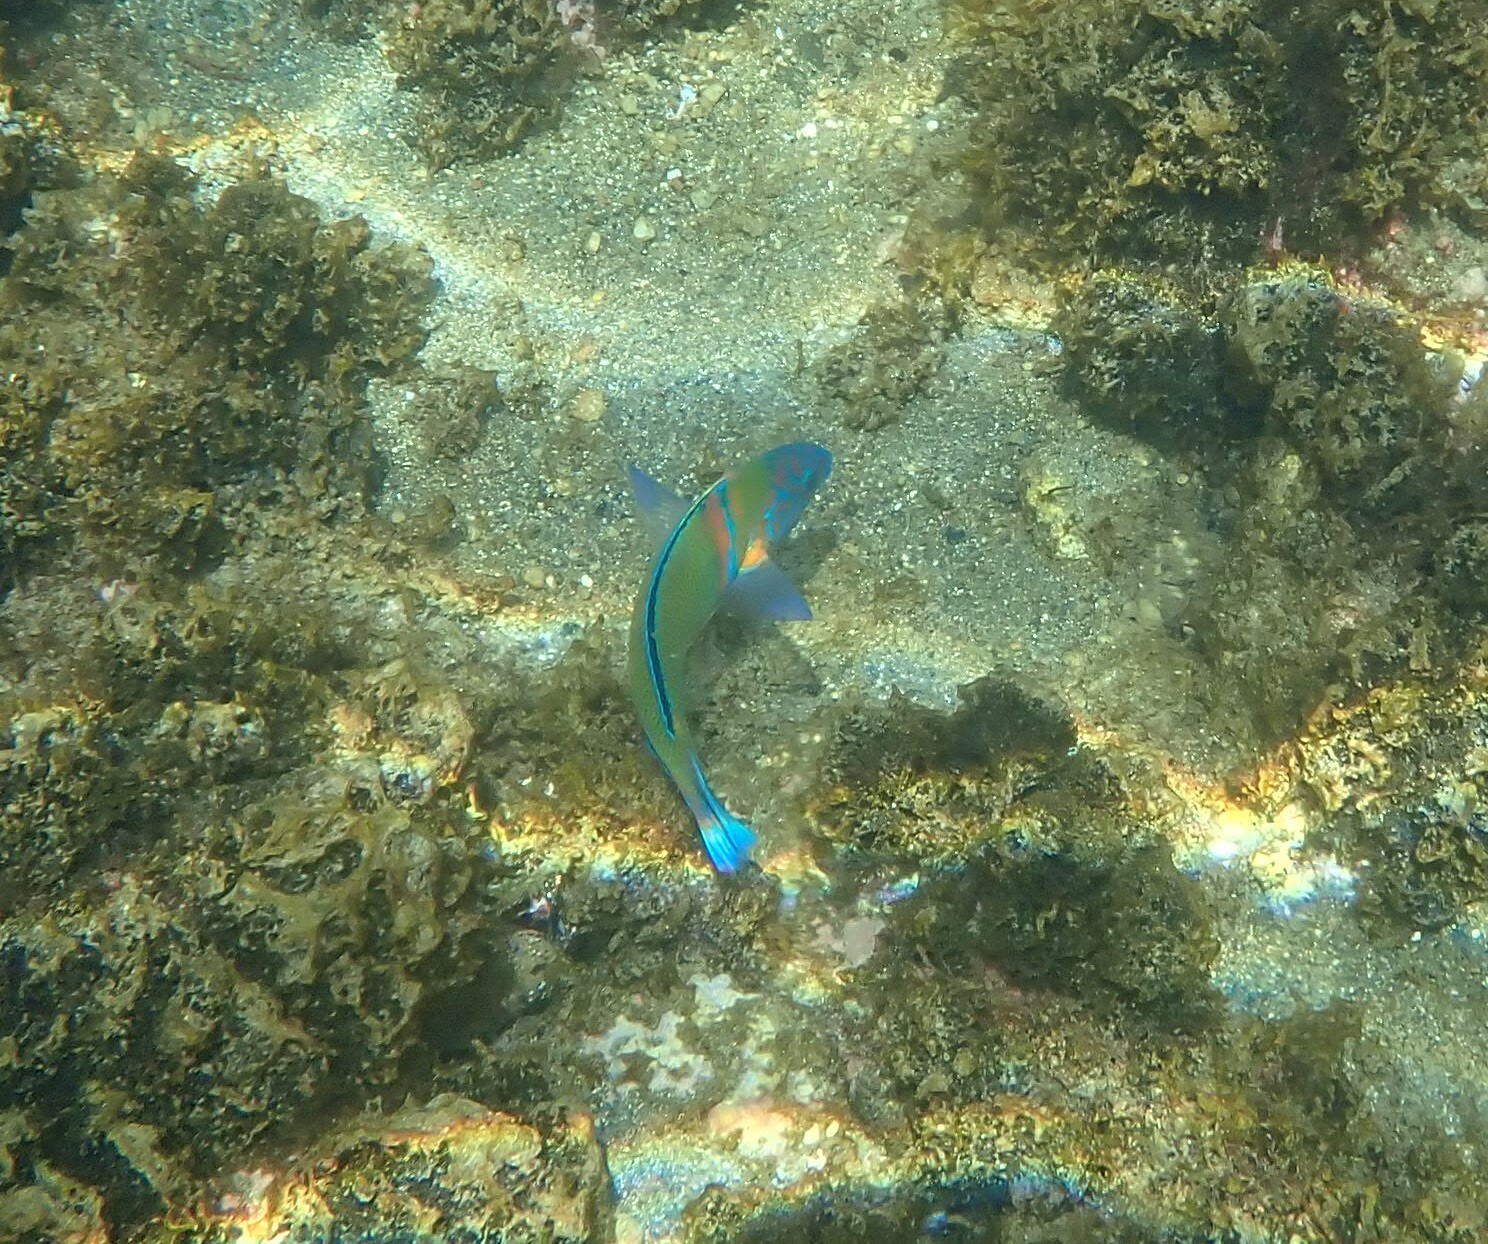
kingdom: Animalia
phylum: Chordata
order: Perciformes
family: Labridae
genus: Thalassoma
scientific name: Thalassoma pavo
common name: Ornate wrasse
